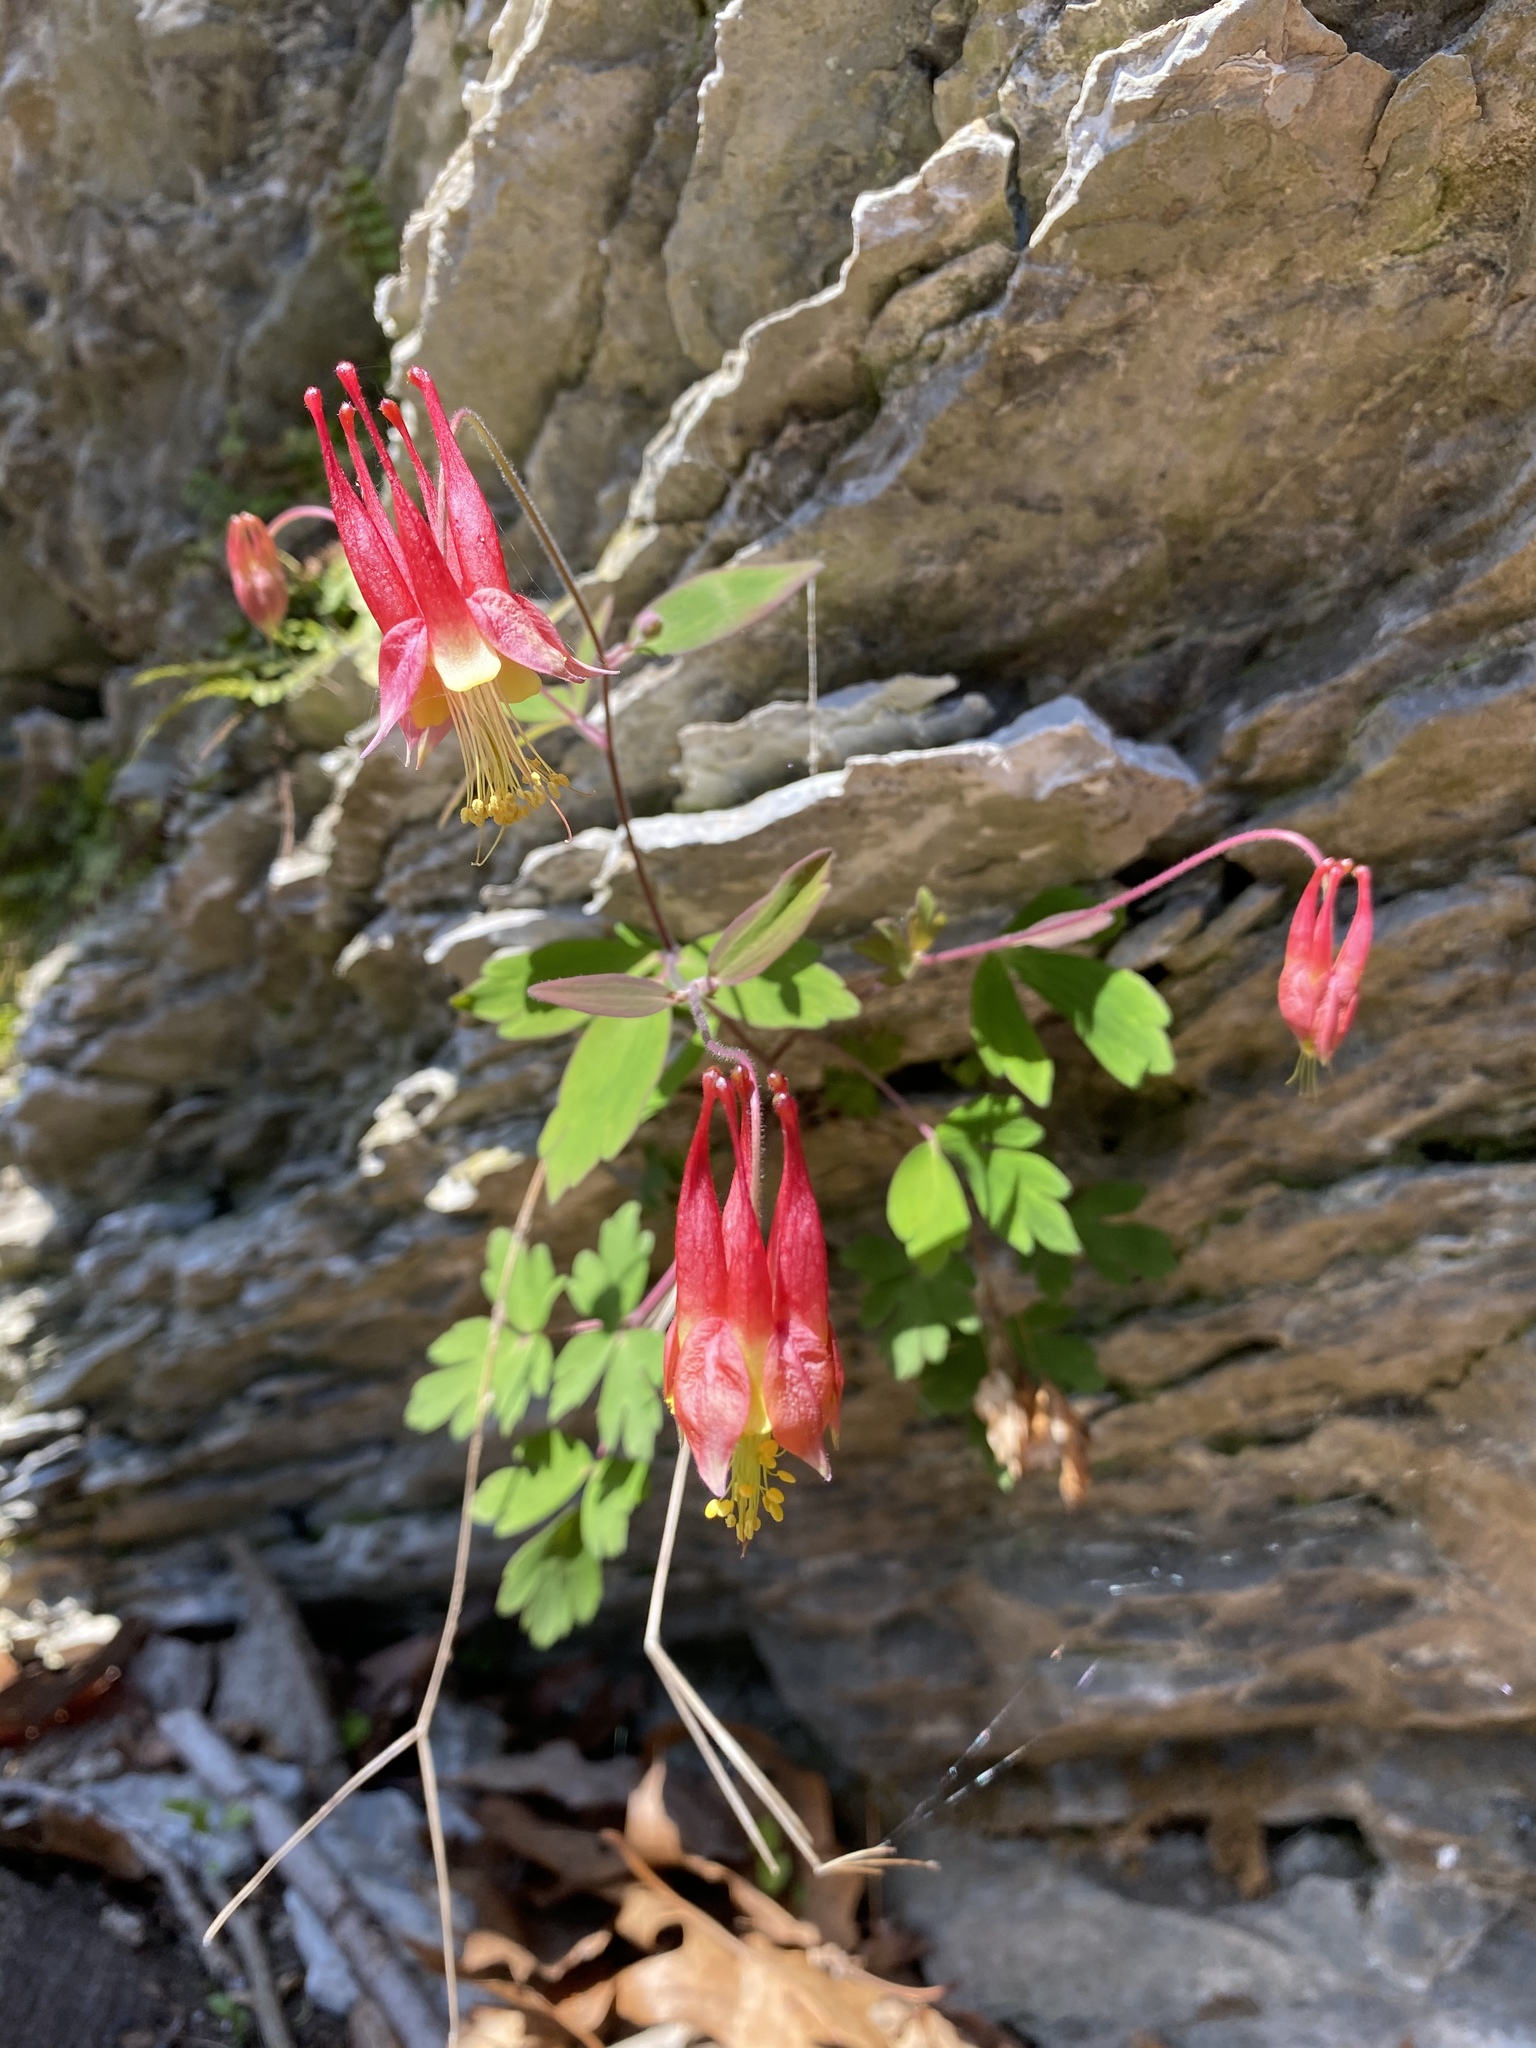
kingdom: Plantae
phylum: Tracheophyta
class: Magnoliopsida
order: Ranunculales
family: Ranunculaceae
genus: Aquilegia
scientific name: Aquilegia canadensis
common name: American columbine
